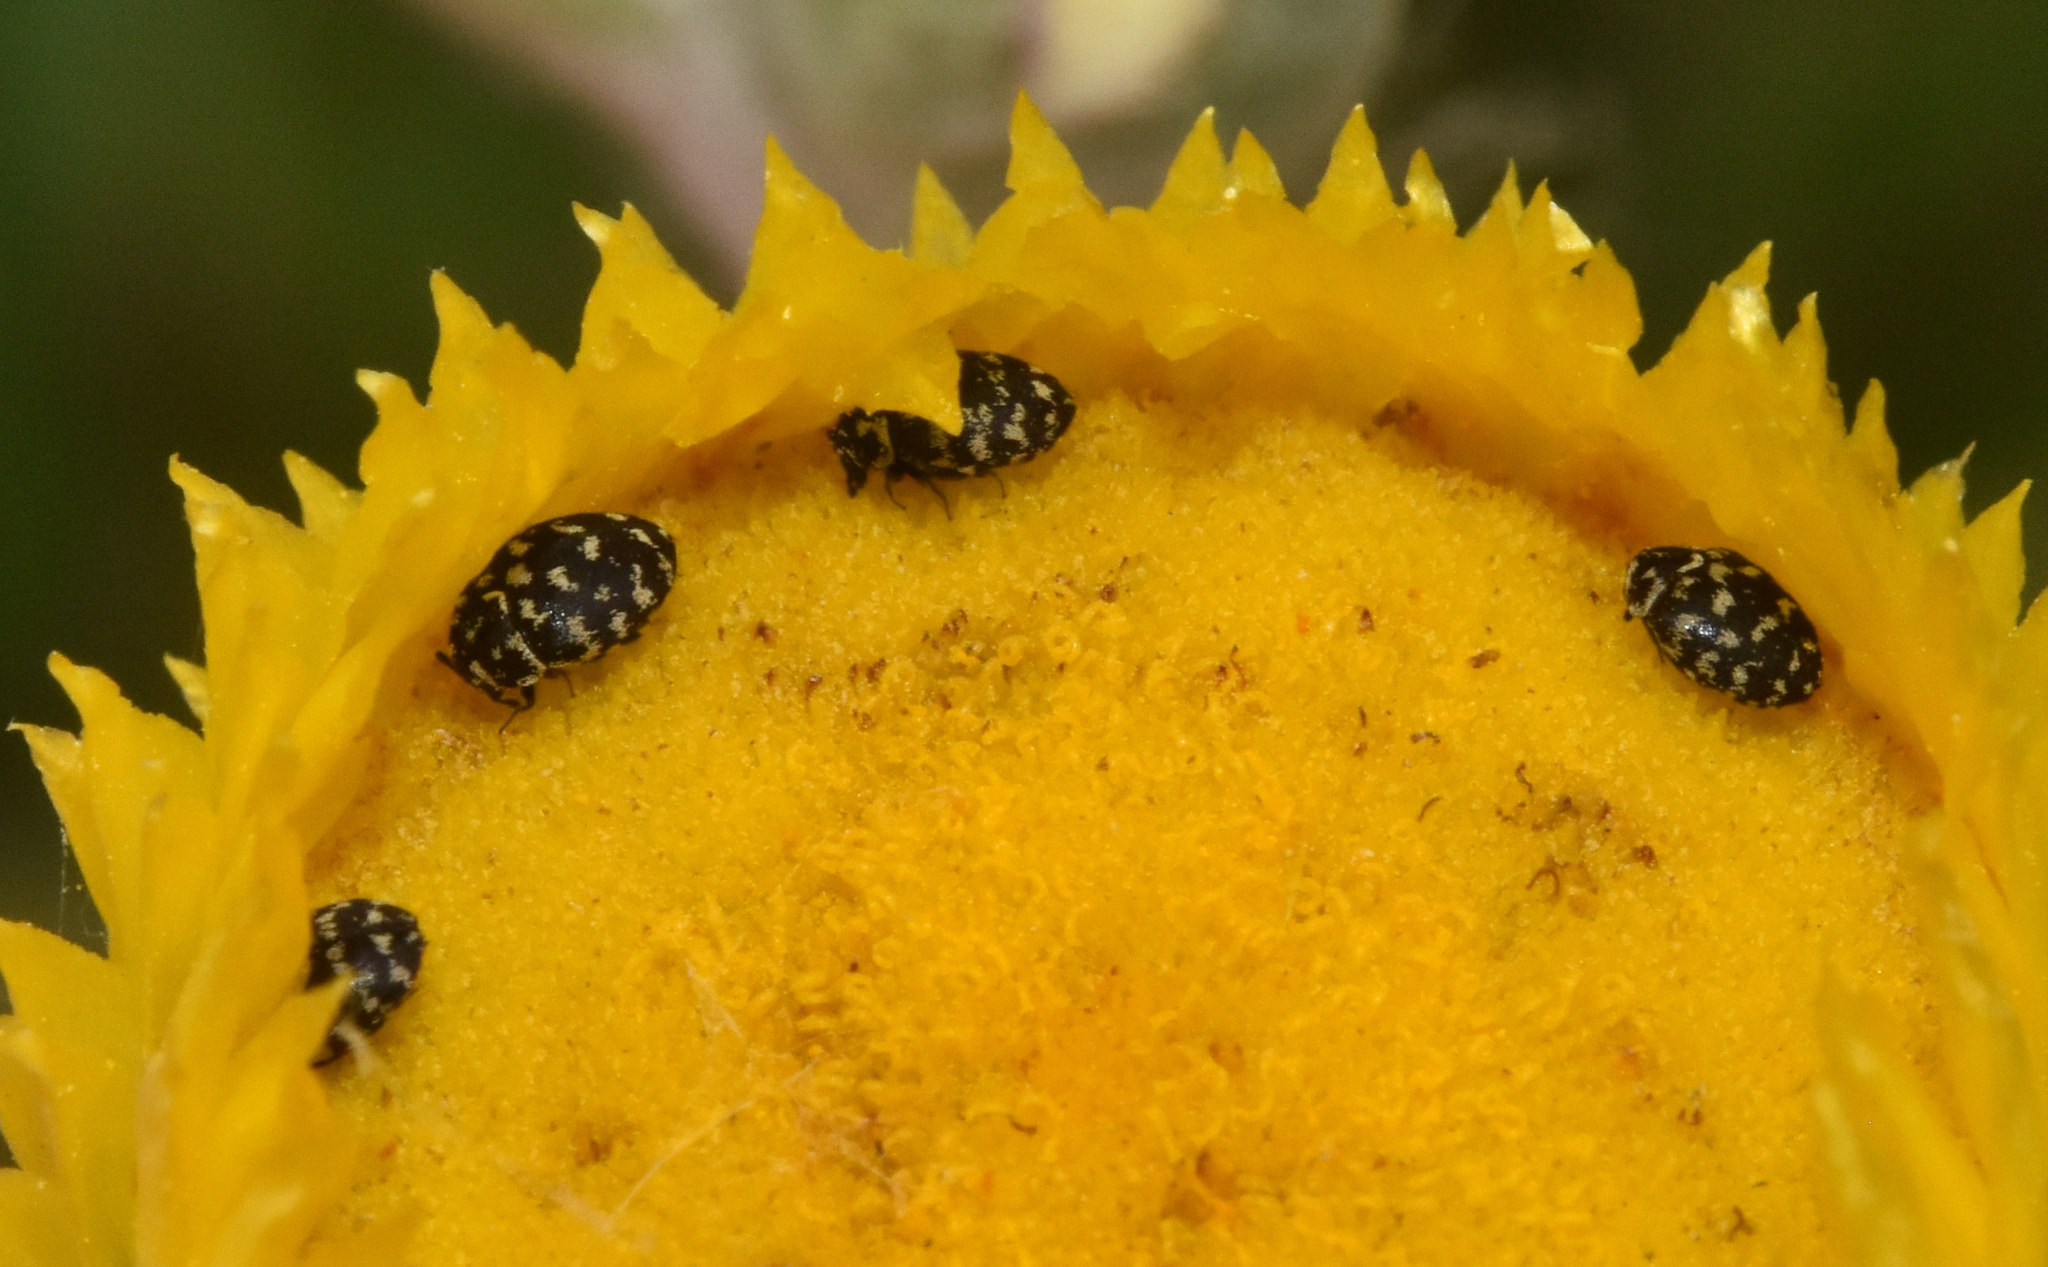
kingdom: Animalia
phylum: Arthropoda
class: Insecta
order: Coleoptera
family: Dermestidae
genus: Anthrenus
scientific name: Anthrenus
